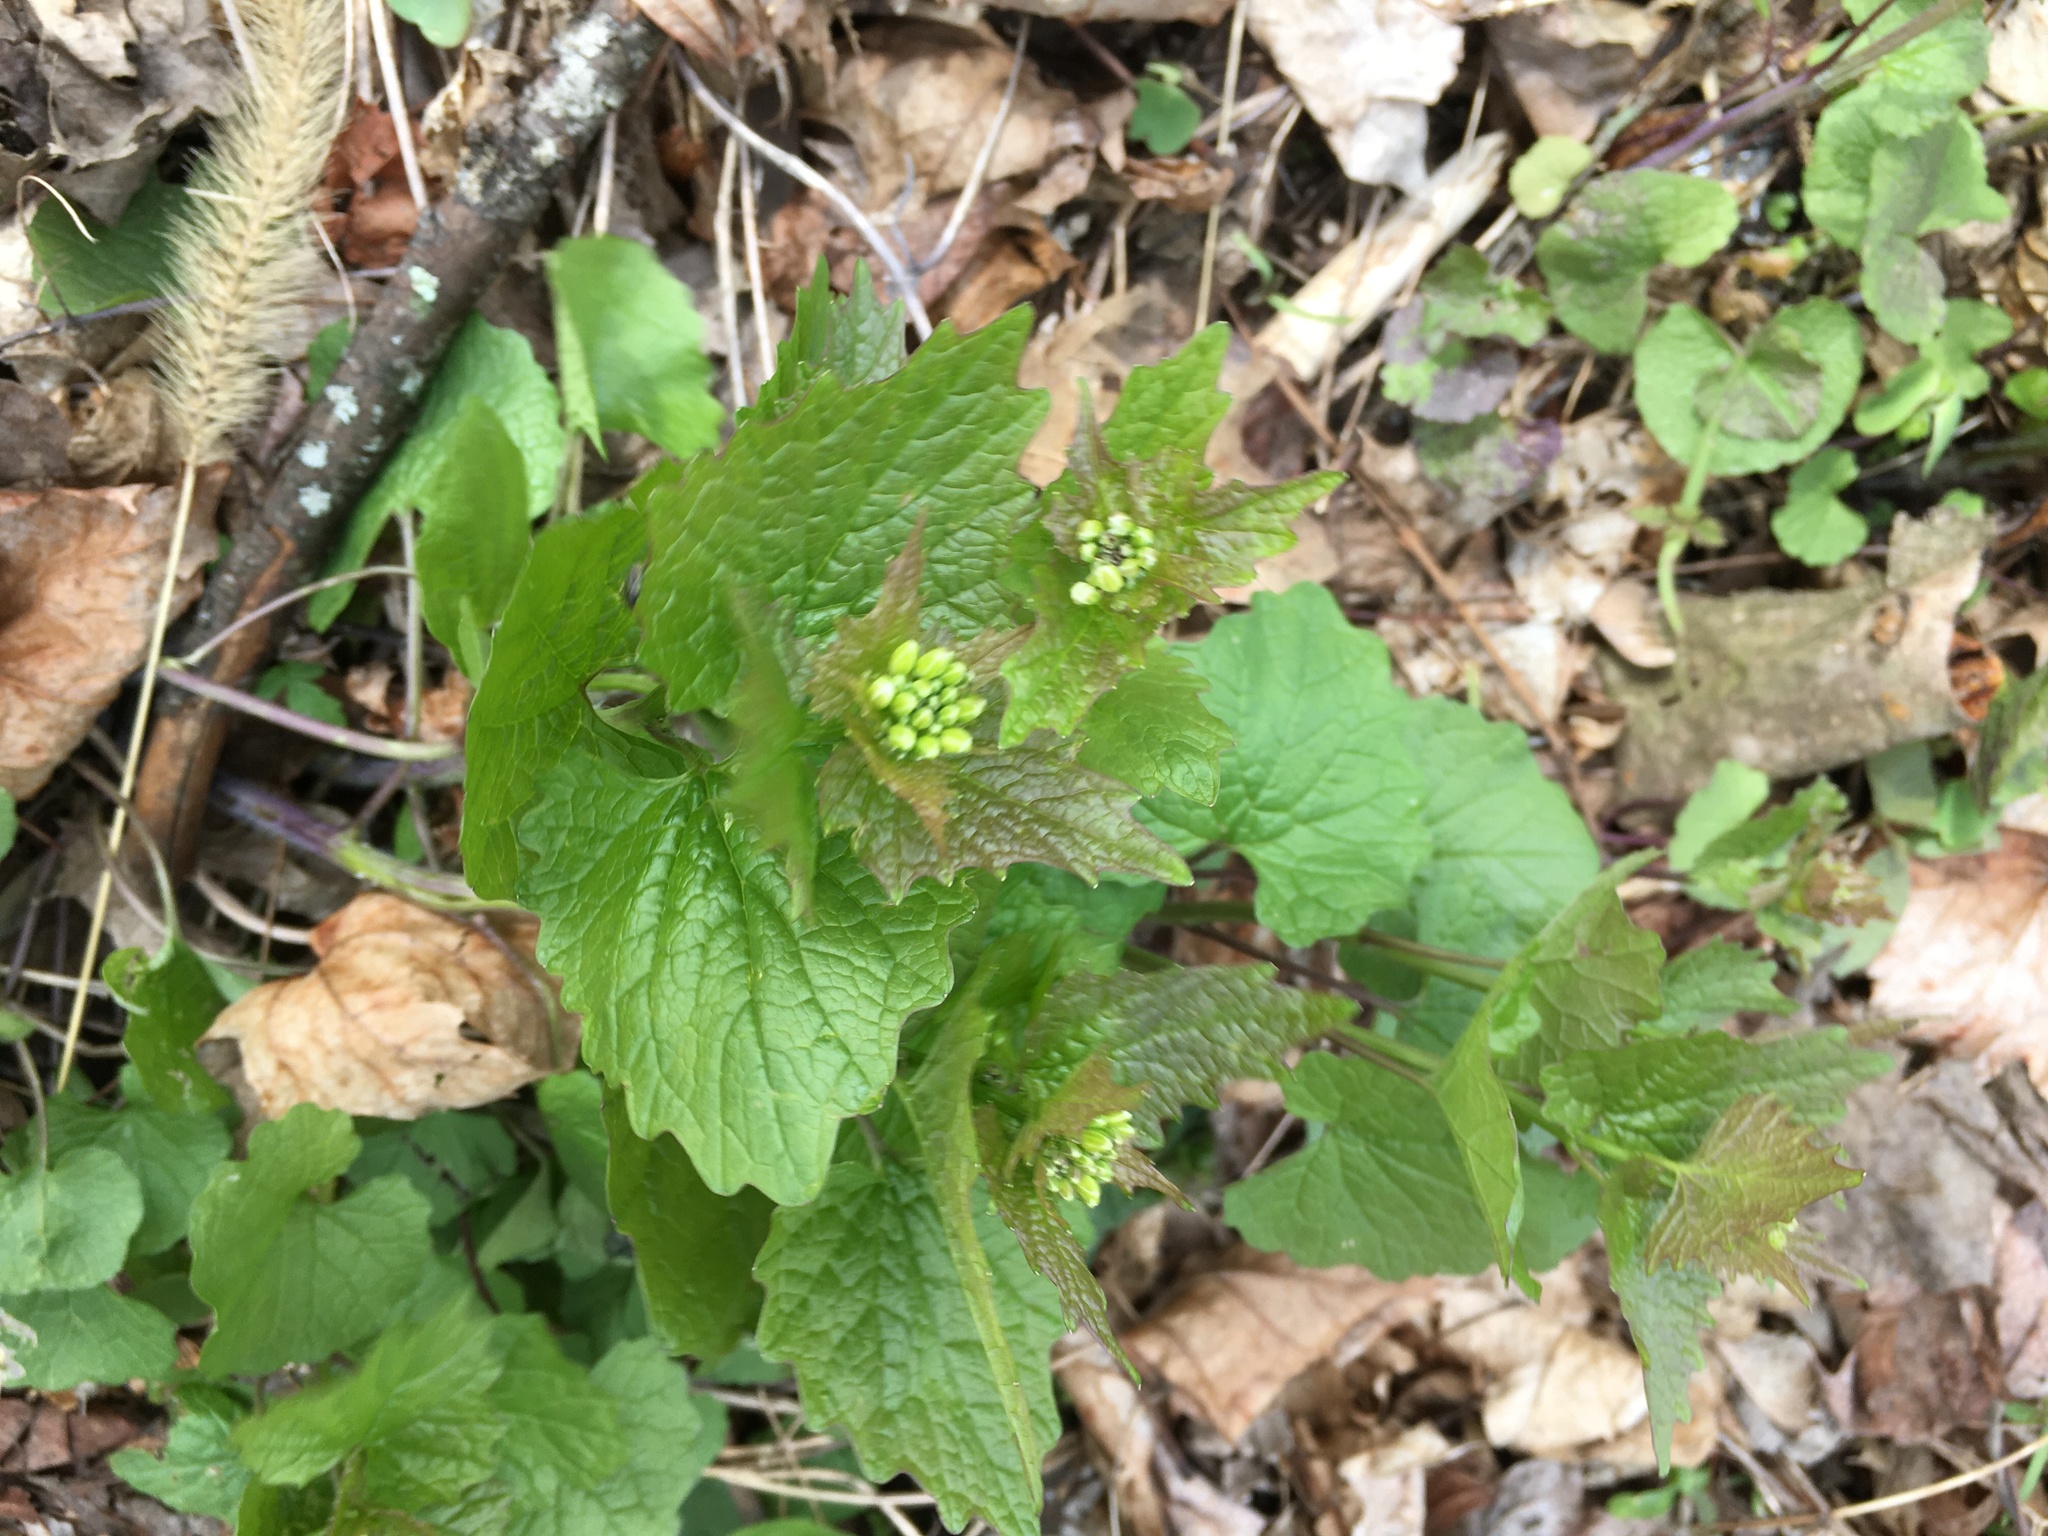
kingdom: Plantae
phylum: Tracheophyta
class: Magnoliopsida
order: Brassicales
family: Brassicaceae
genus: Alliaria
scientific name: Alliaria petiolata
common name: Garlic mustard
